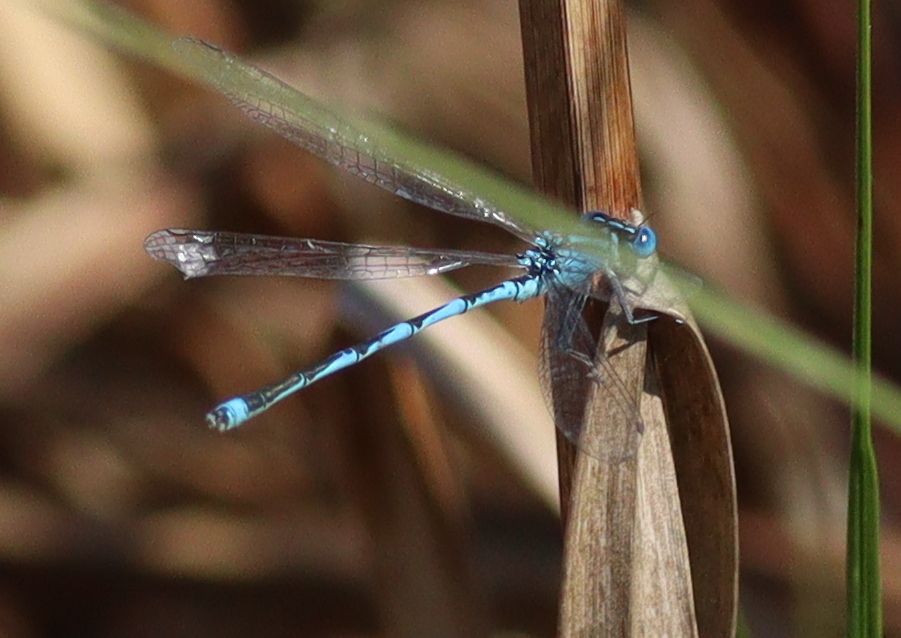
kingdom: Animalia
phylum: Arthropoda
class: Insecta
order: Odonata
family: Coenagrionidae
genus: Erythromma
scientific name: Erythromma lindenii
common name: Blue-eye
